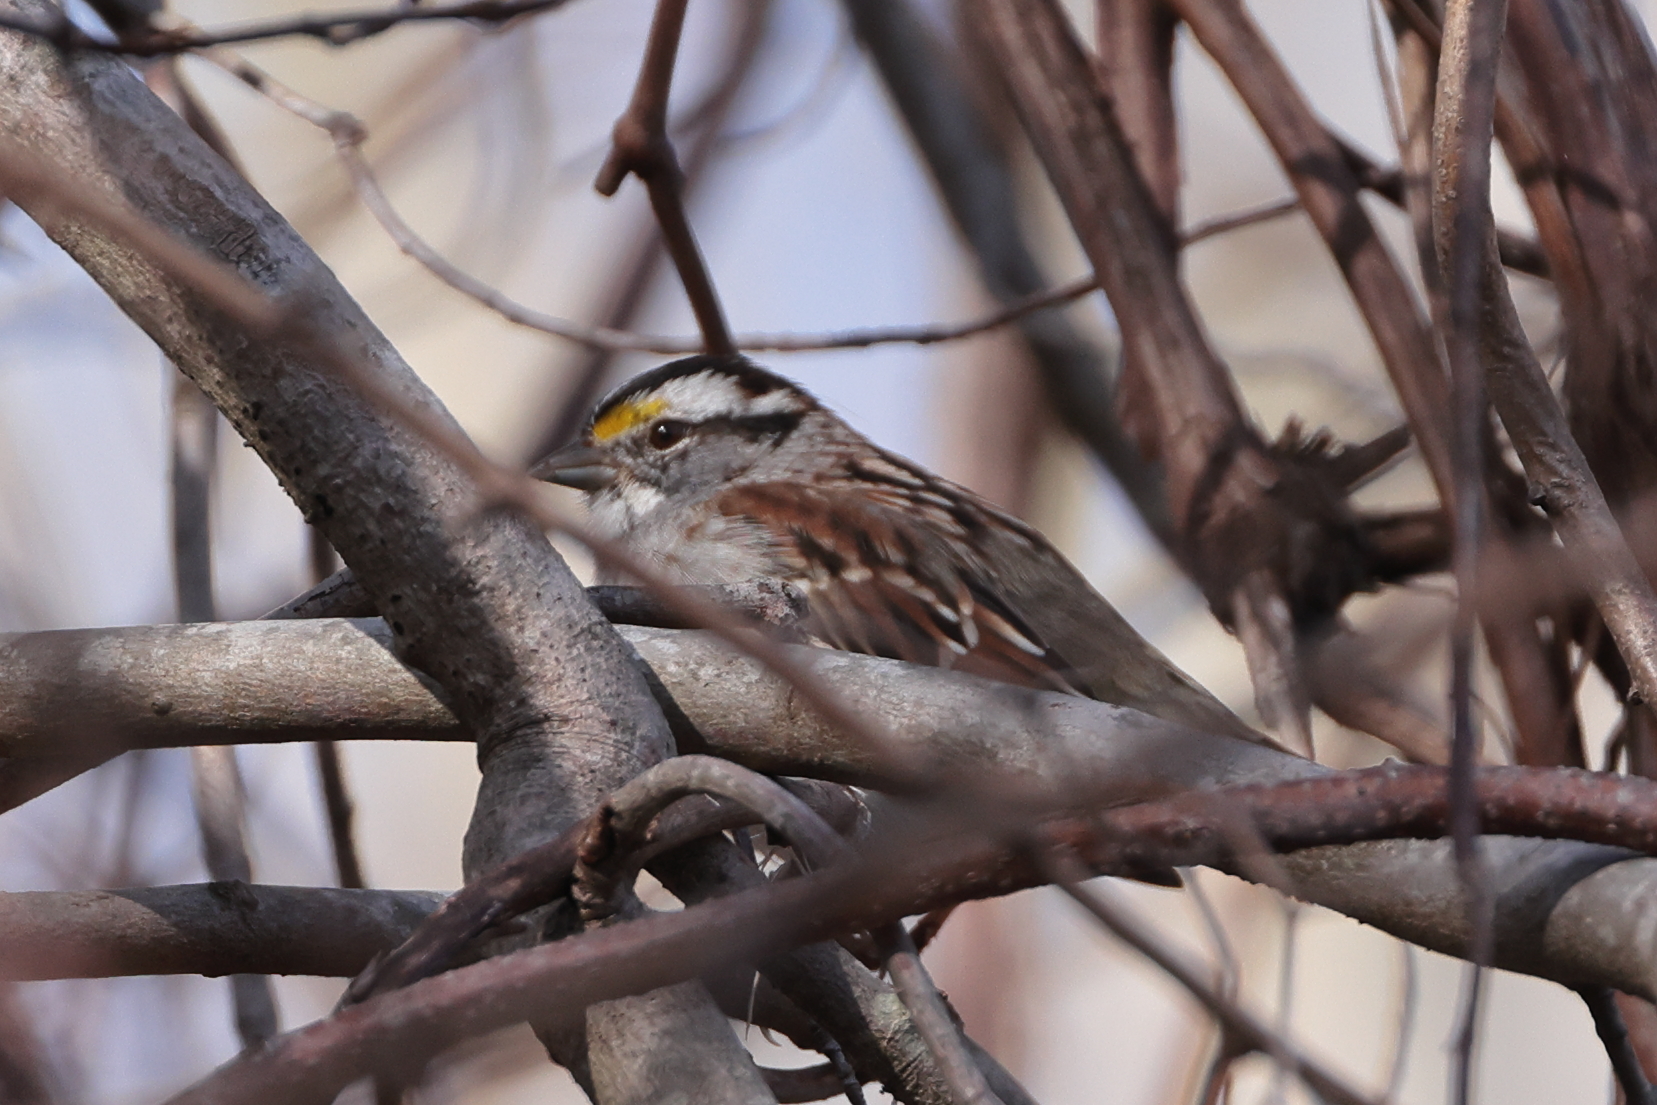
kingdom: Animalia
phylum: Chordata
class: Aves
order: Passeriformes
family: Passerellidae
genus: Zonotrichia
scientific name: Zonotrichia albicollis
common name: White-throated sparrow
